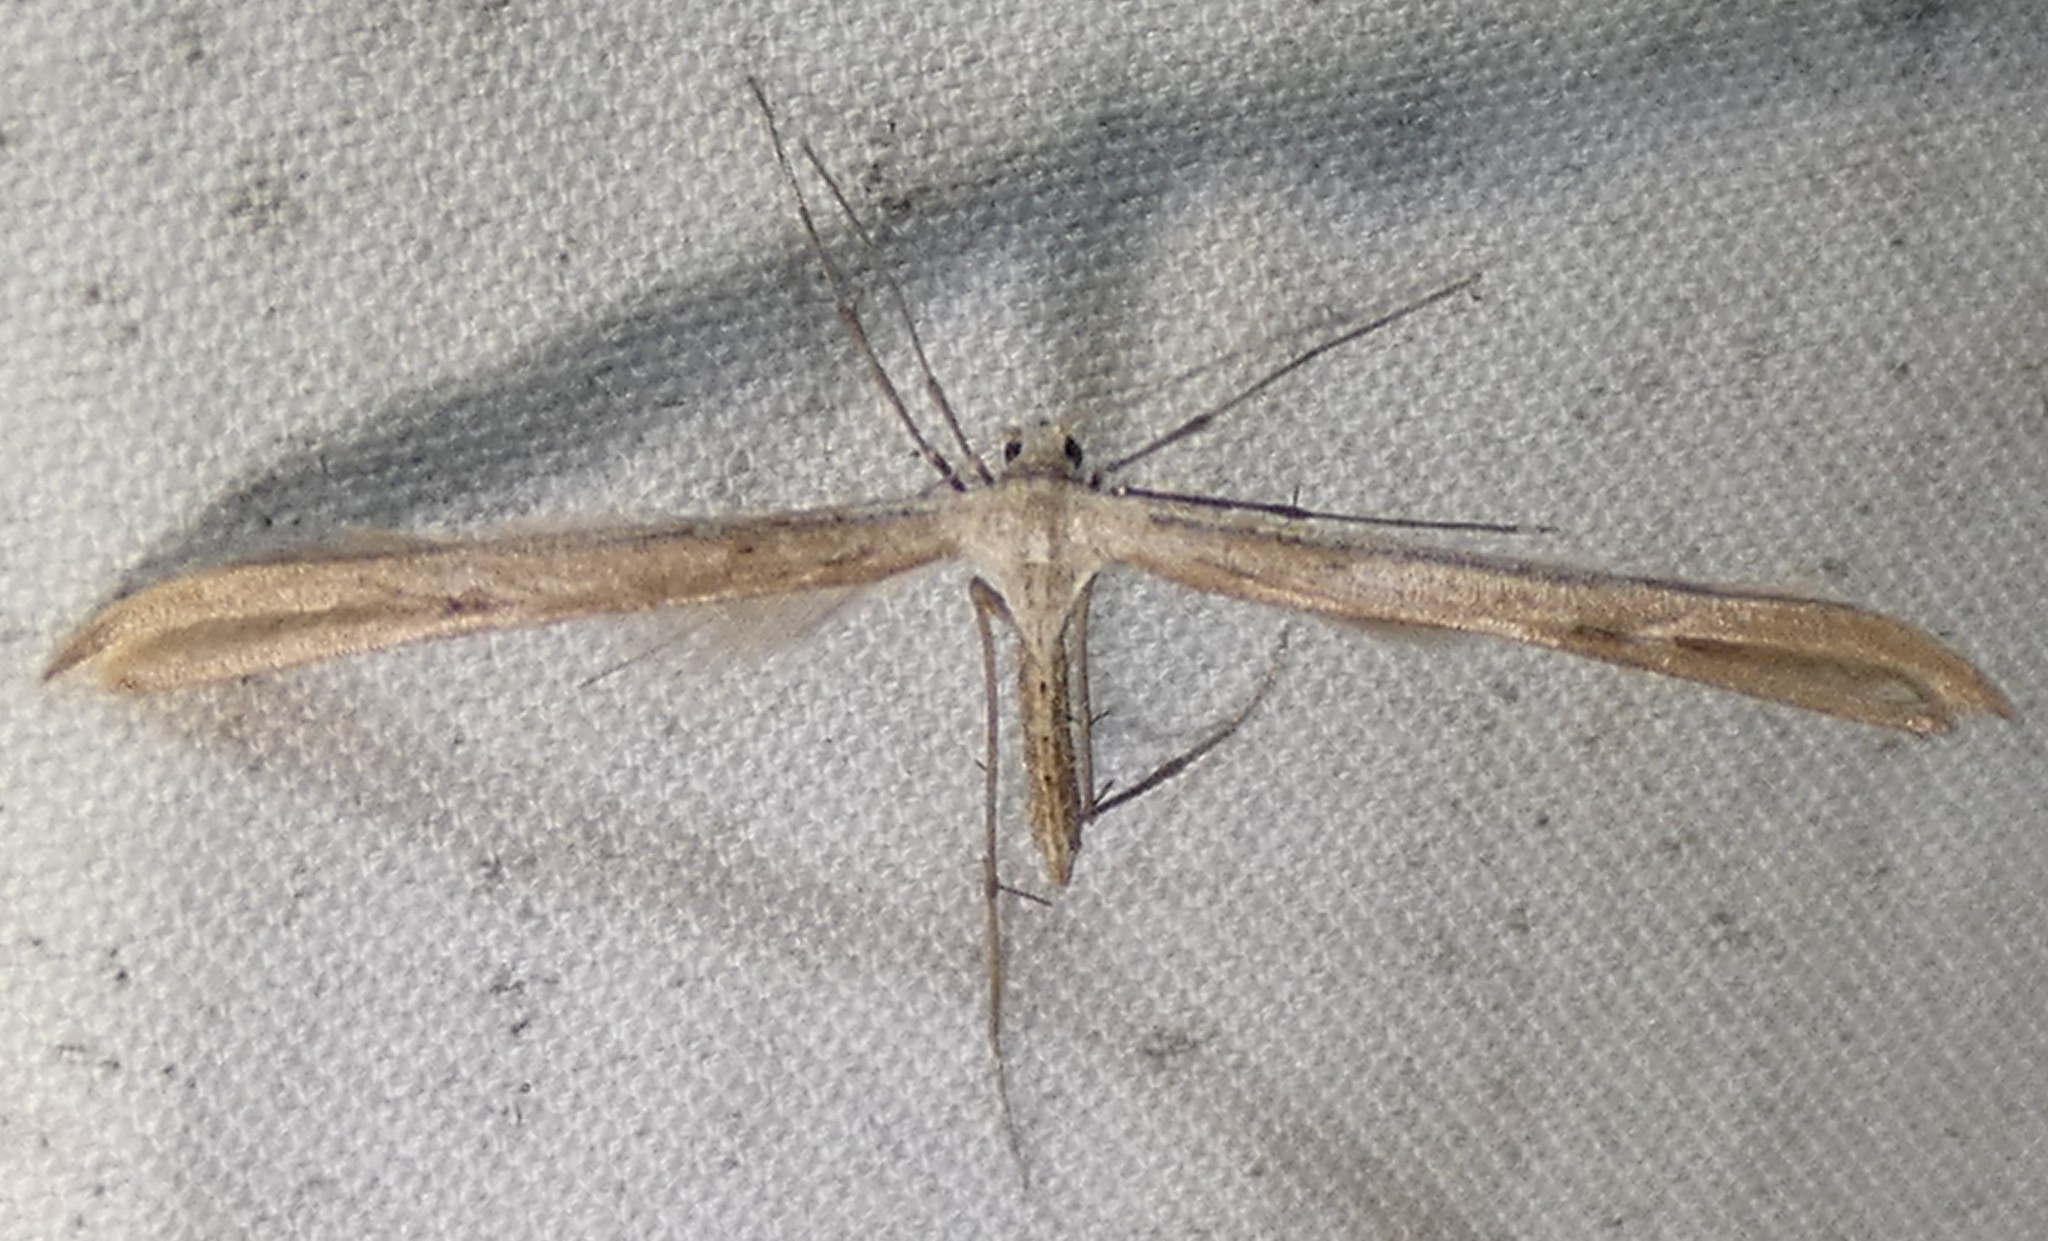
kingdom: Animalia
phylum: Arthropoda
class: Insecta
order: Lepidoptera
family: Pterophoridae
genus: Emmelina
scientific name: Emmelina monodactyla
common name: Common plume
